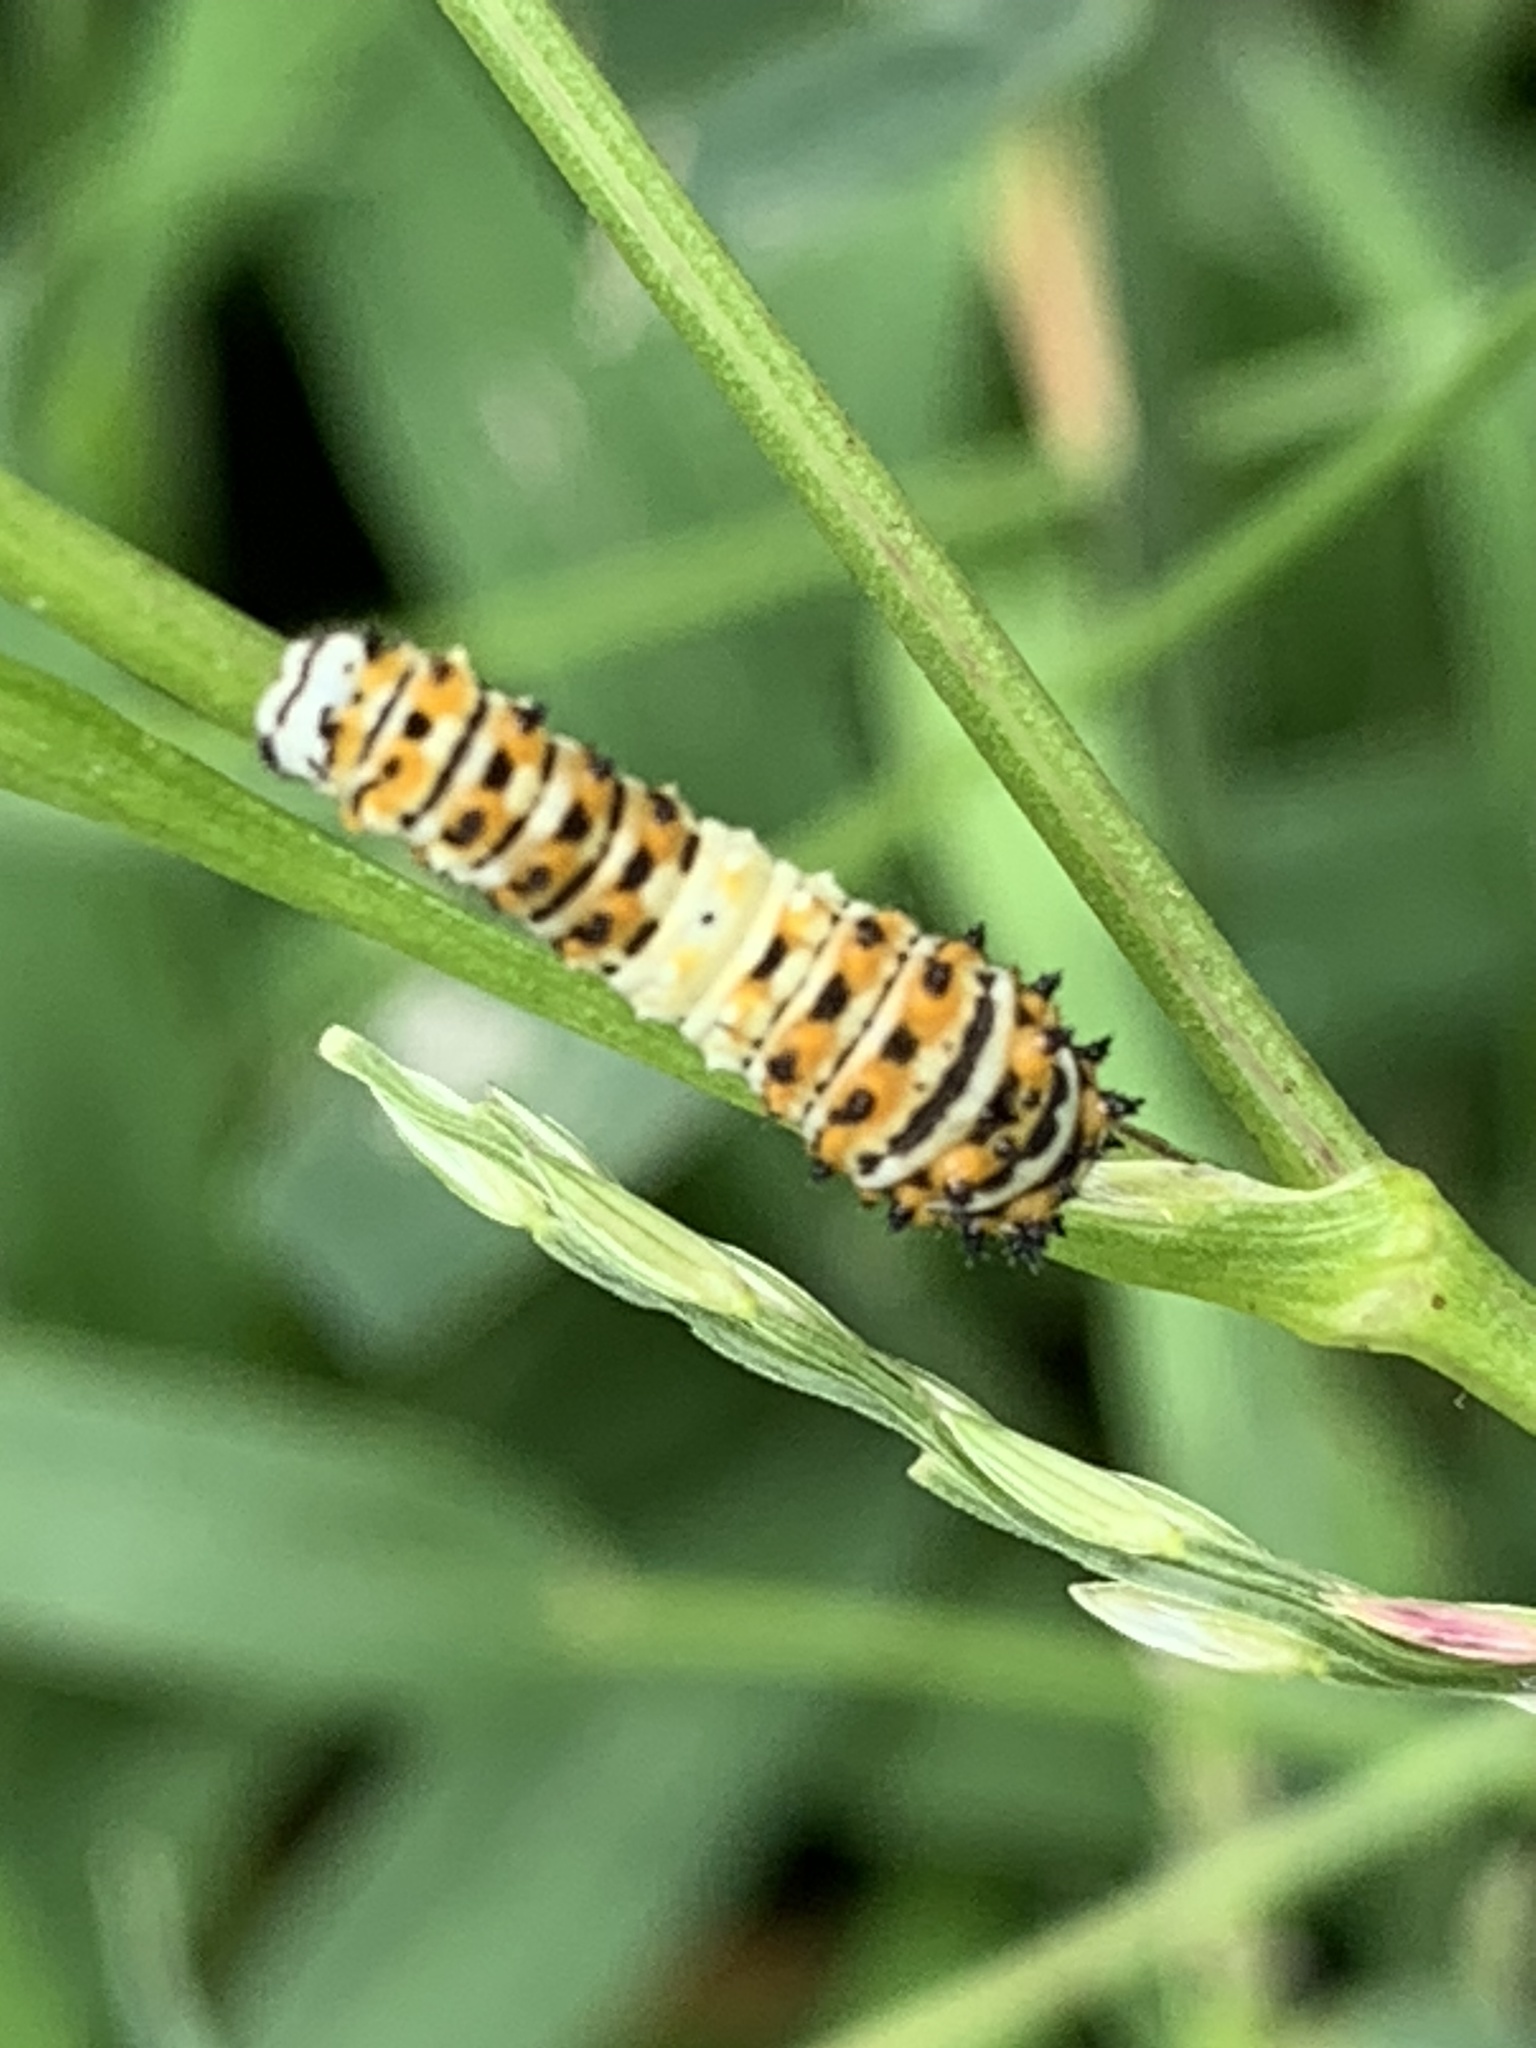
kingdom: Animalia
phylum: Arthropoda
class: Insecta
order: Lepidoptera
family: Papilionidae
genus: Papilio
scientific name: Papilio polyxenes
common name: Black swallowtail
